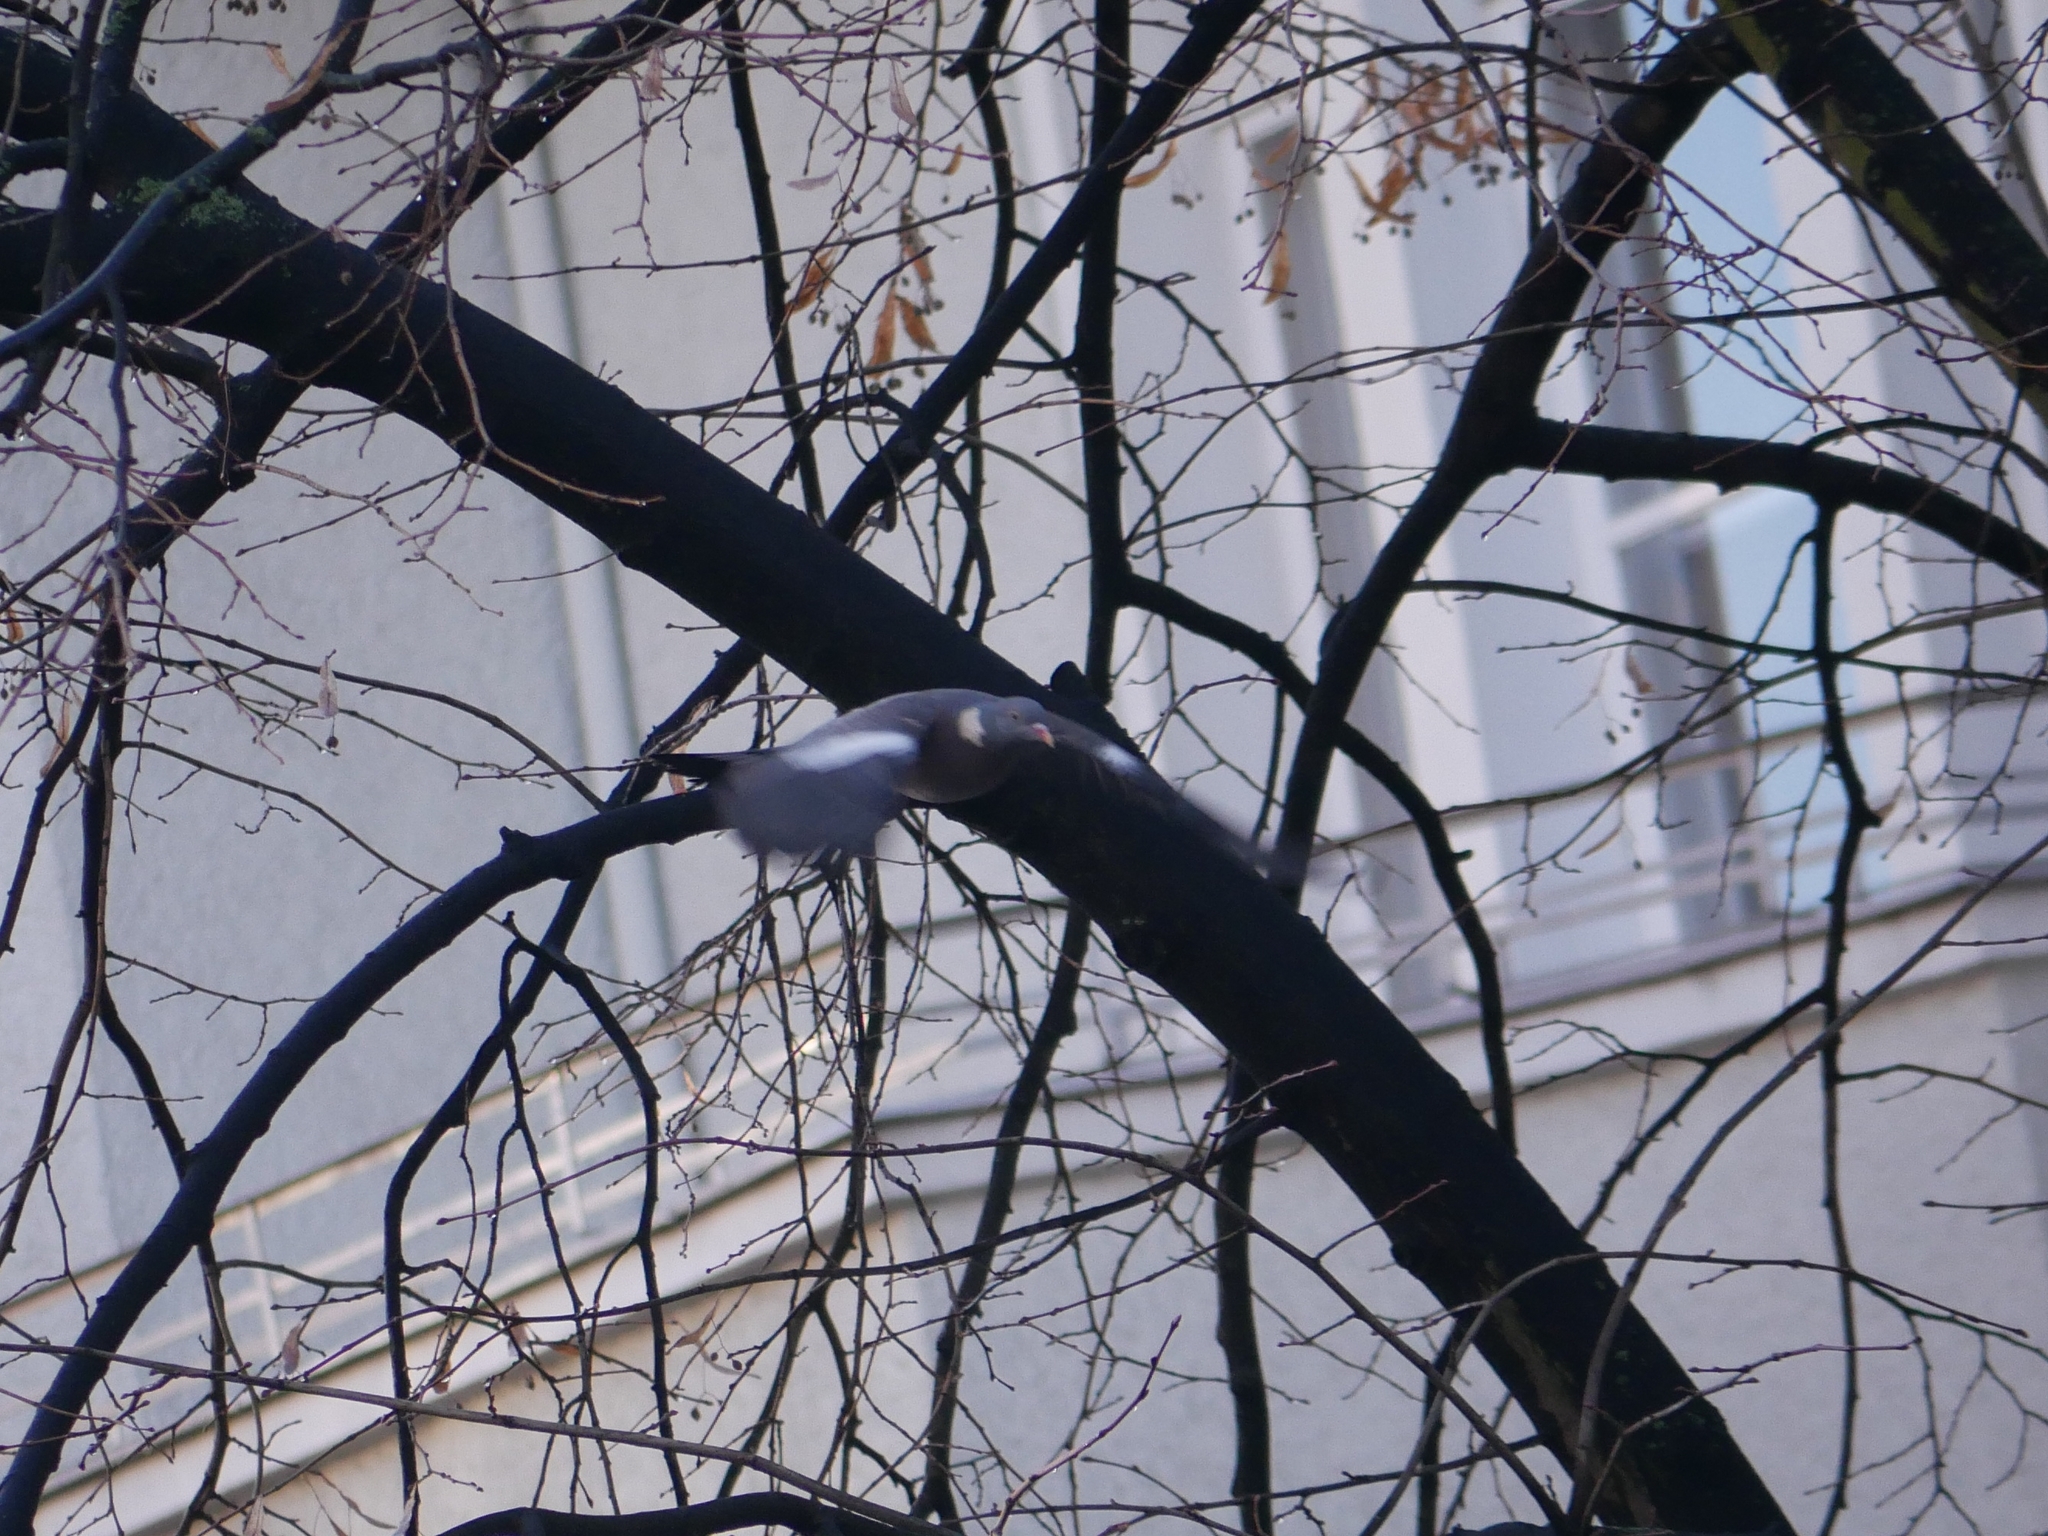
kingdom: Animalia
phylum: Chordata
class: Aves
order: Columbiformes
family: Columbidae
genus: Columba
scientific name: Columba palumbus
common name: Common wood pigeon
